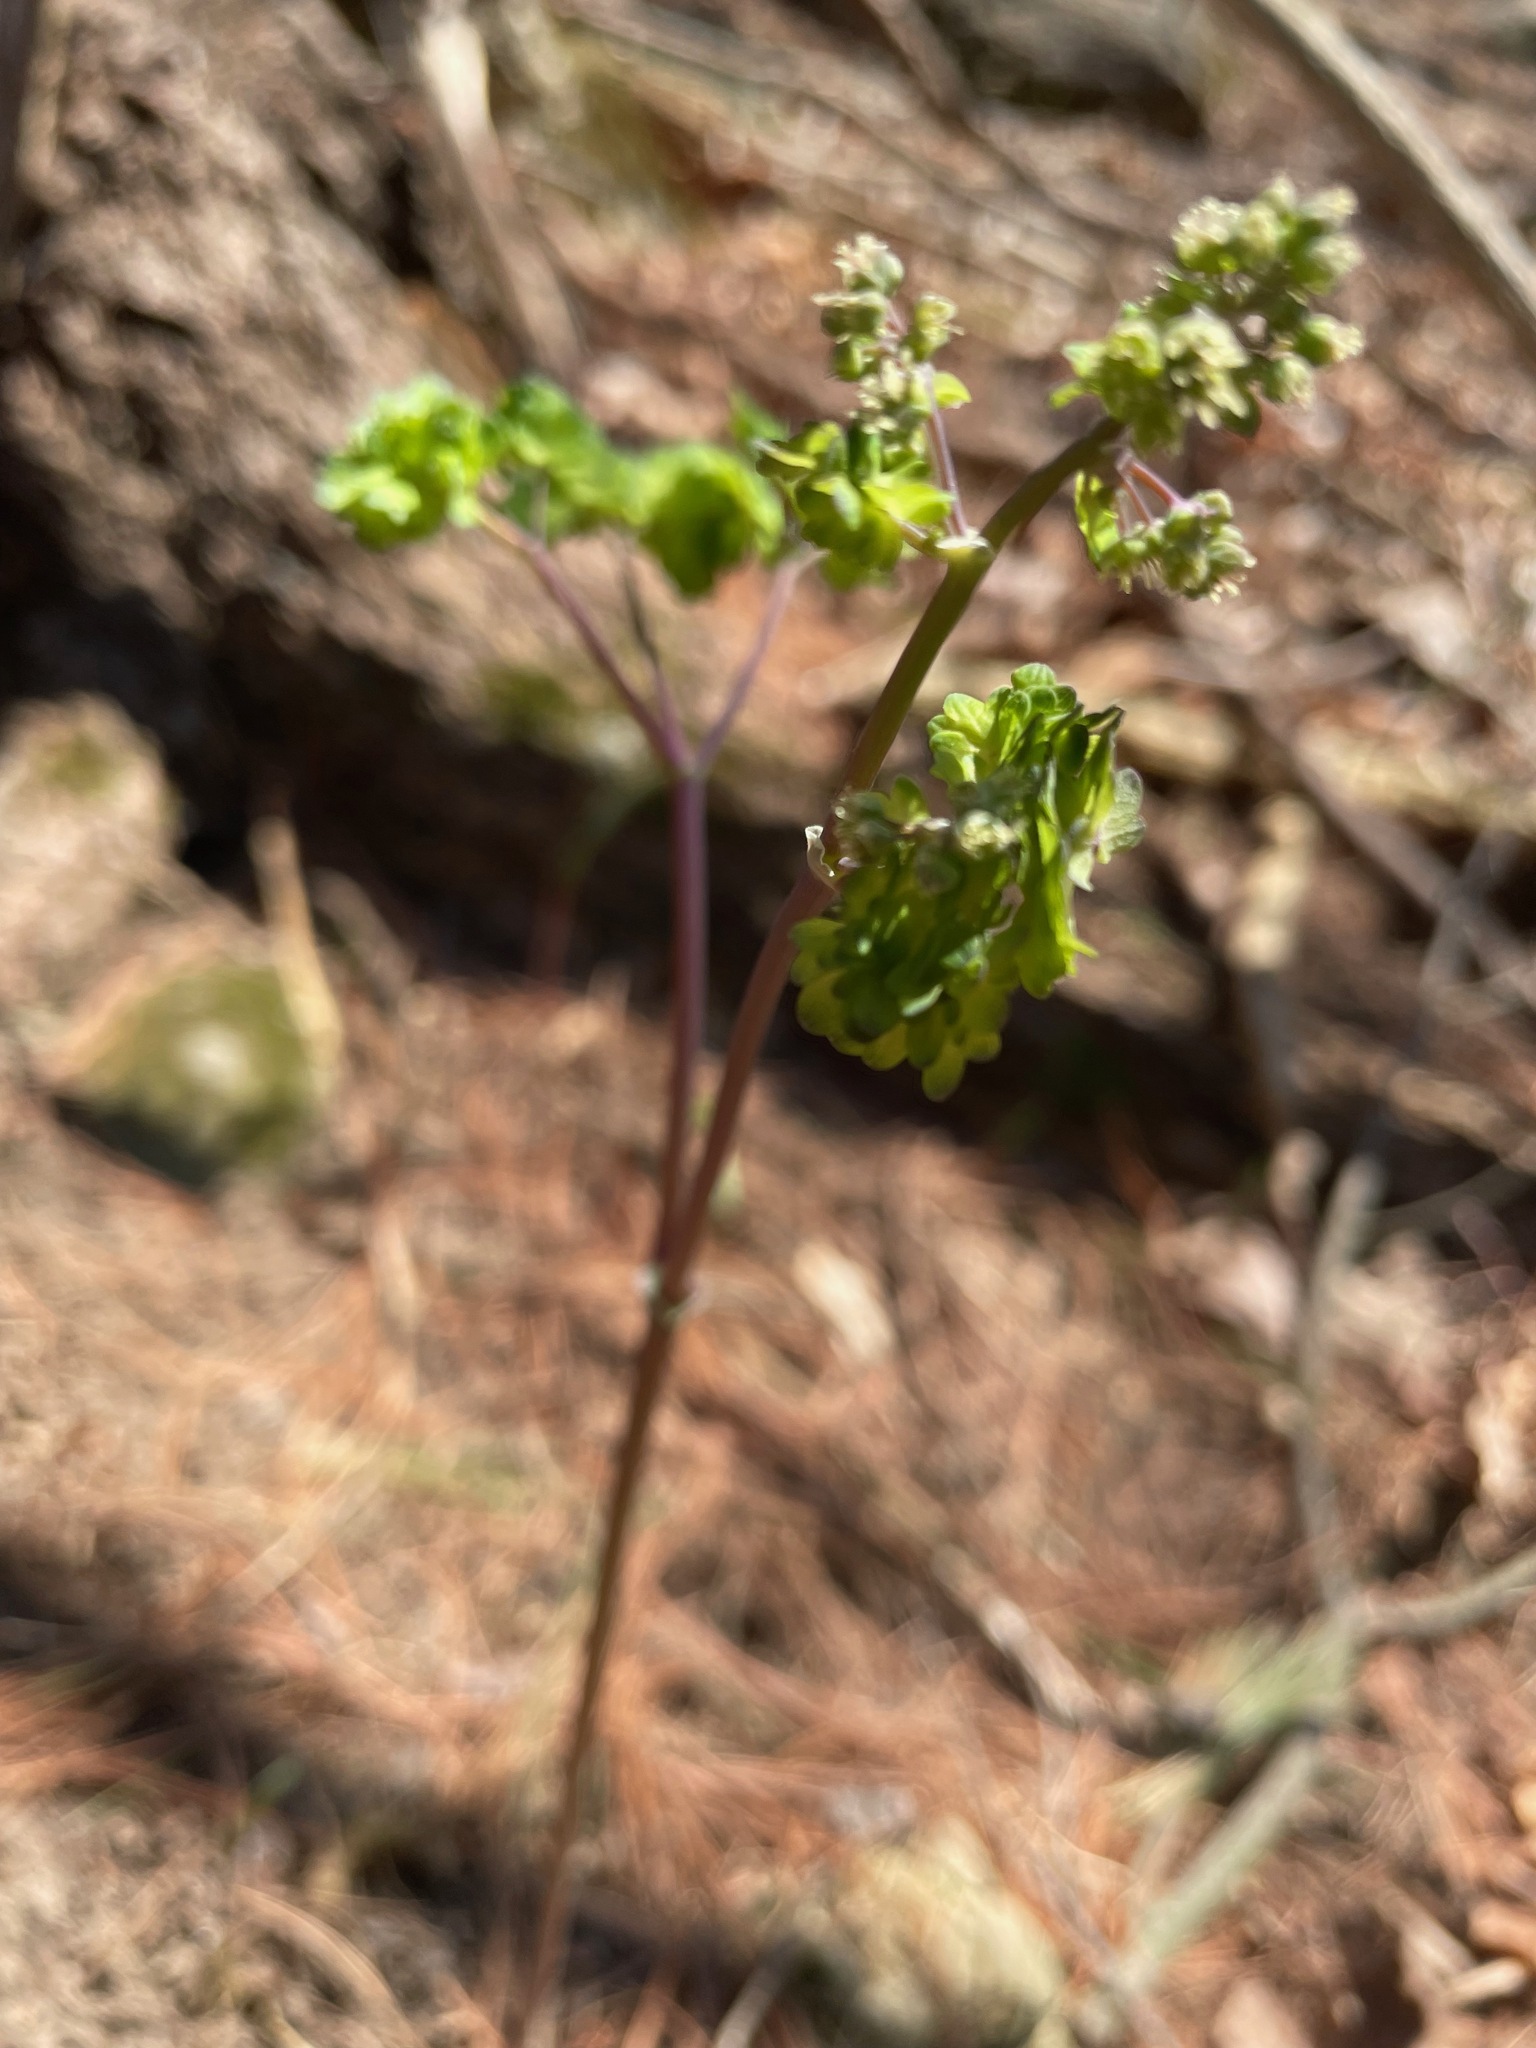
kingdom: Plantae
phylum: Tracheophyta
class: Magnoliopsida
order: Ranunculales
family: Ranunculaceae
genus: Thalictrum
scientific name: Thalictrum dioicum
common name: Early meadow-rue
